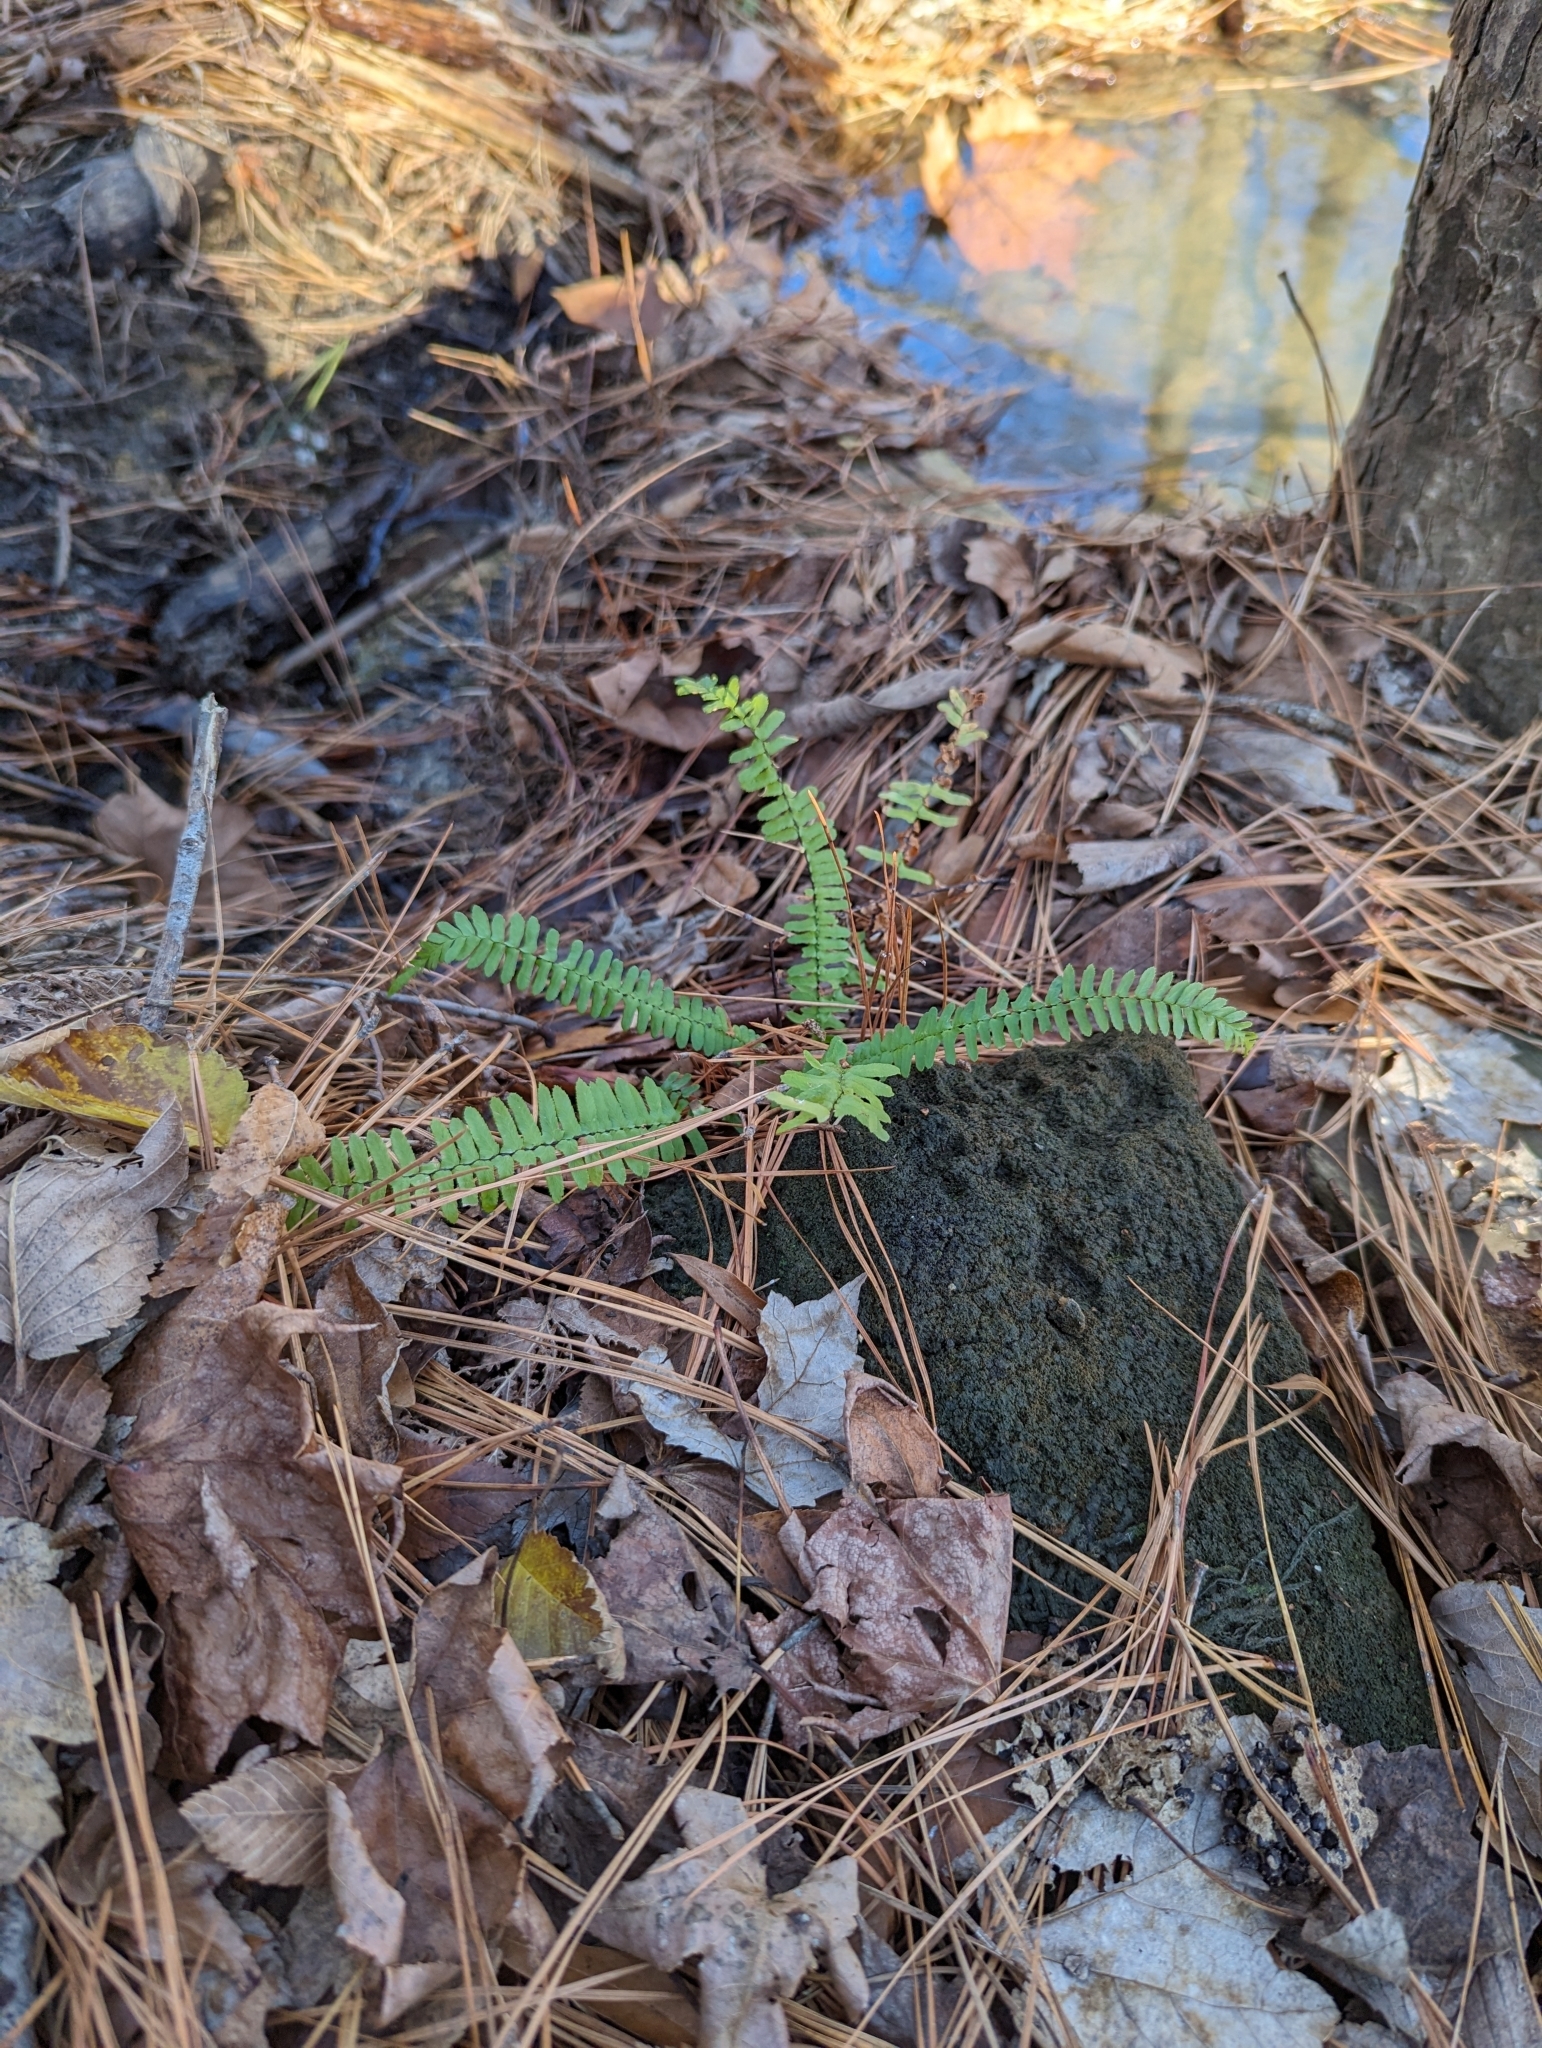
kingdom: Plantae
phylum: Tracheophyta
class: Polypodiopsida
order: Polypodiales
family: Aspleniaceae
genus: Asplenium
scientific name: Asplenium platyneuron
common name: Ebony spleenwort
